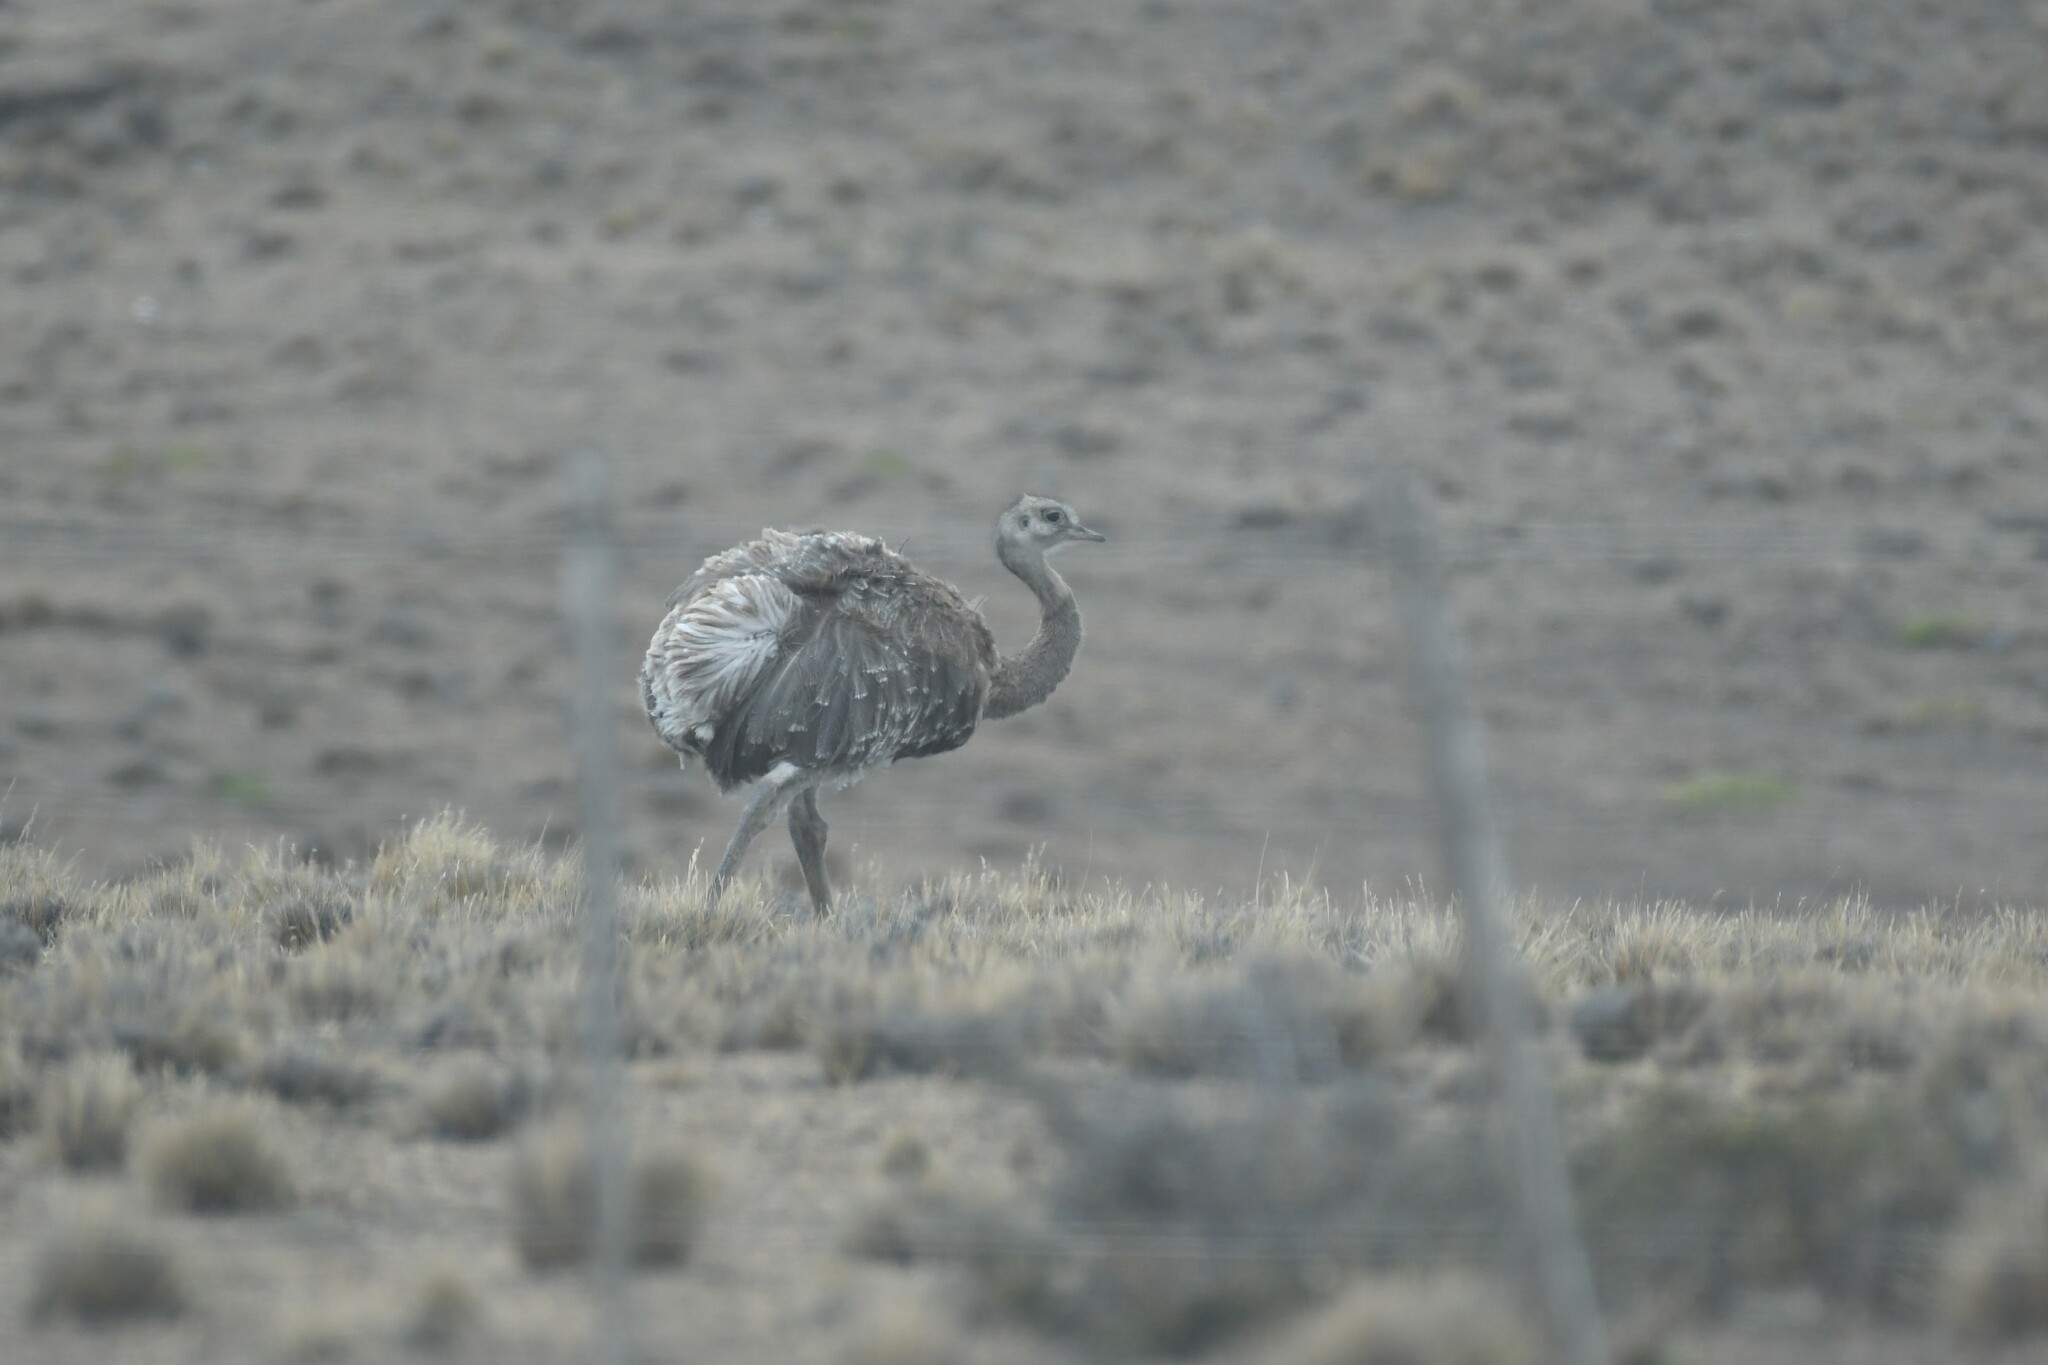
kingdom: Animalia
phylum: Chordata
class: Aves
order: Rheiformes
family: Rheidae
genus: Rhea
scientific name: Rhea pennata
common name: Lesser rhea
